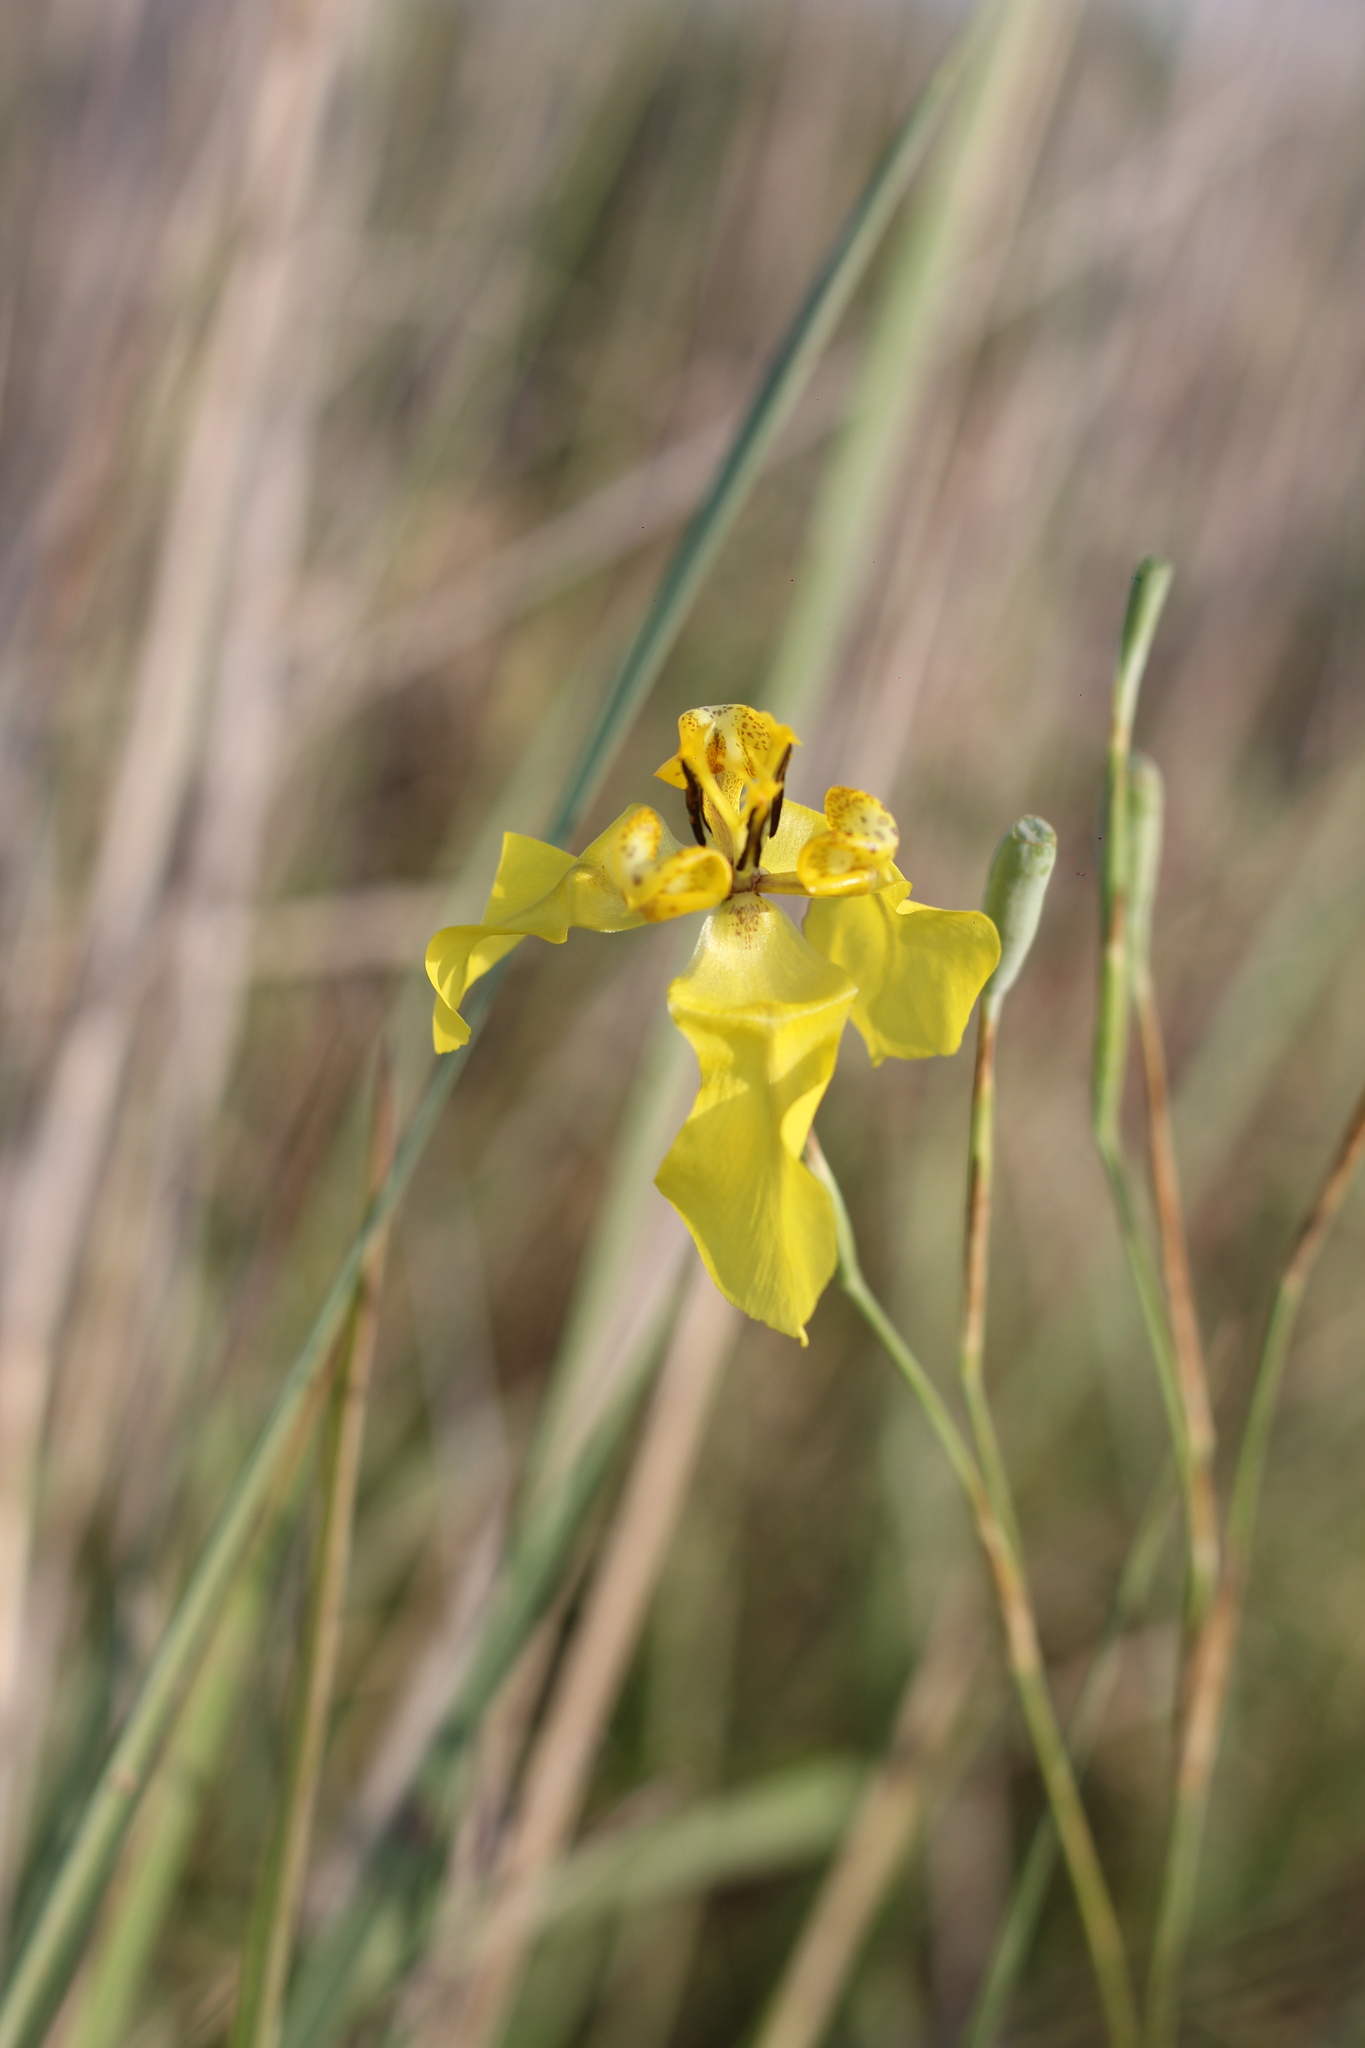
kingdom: Plantae
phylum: Tracheophyta
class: Liliopsida
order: Asparagales
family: Iridaceae
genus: Cypella
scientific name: Cypella armosa
